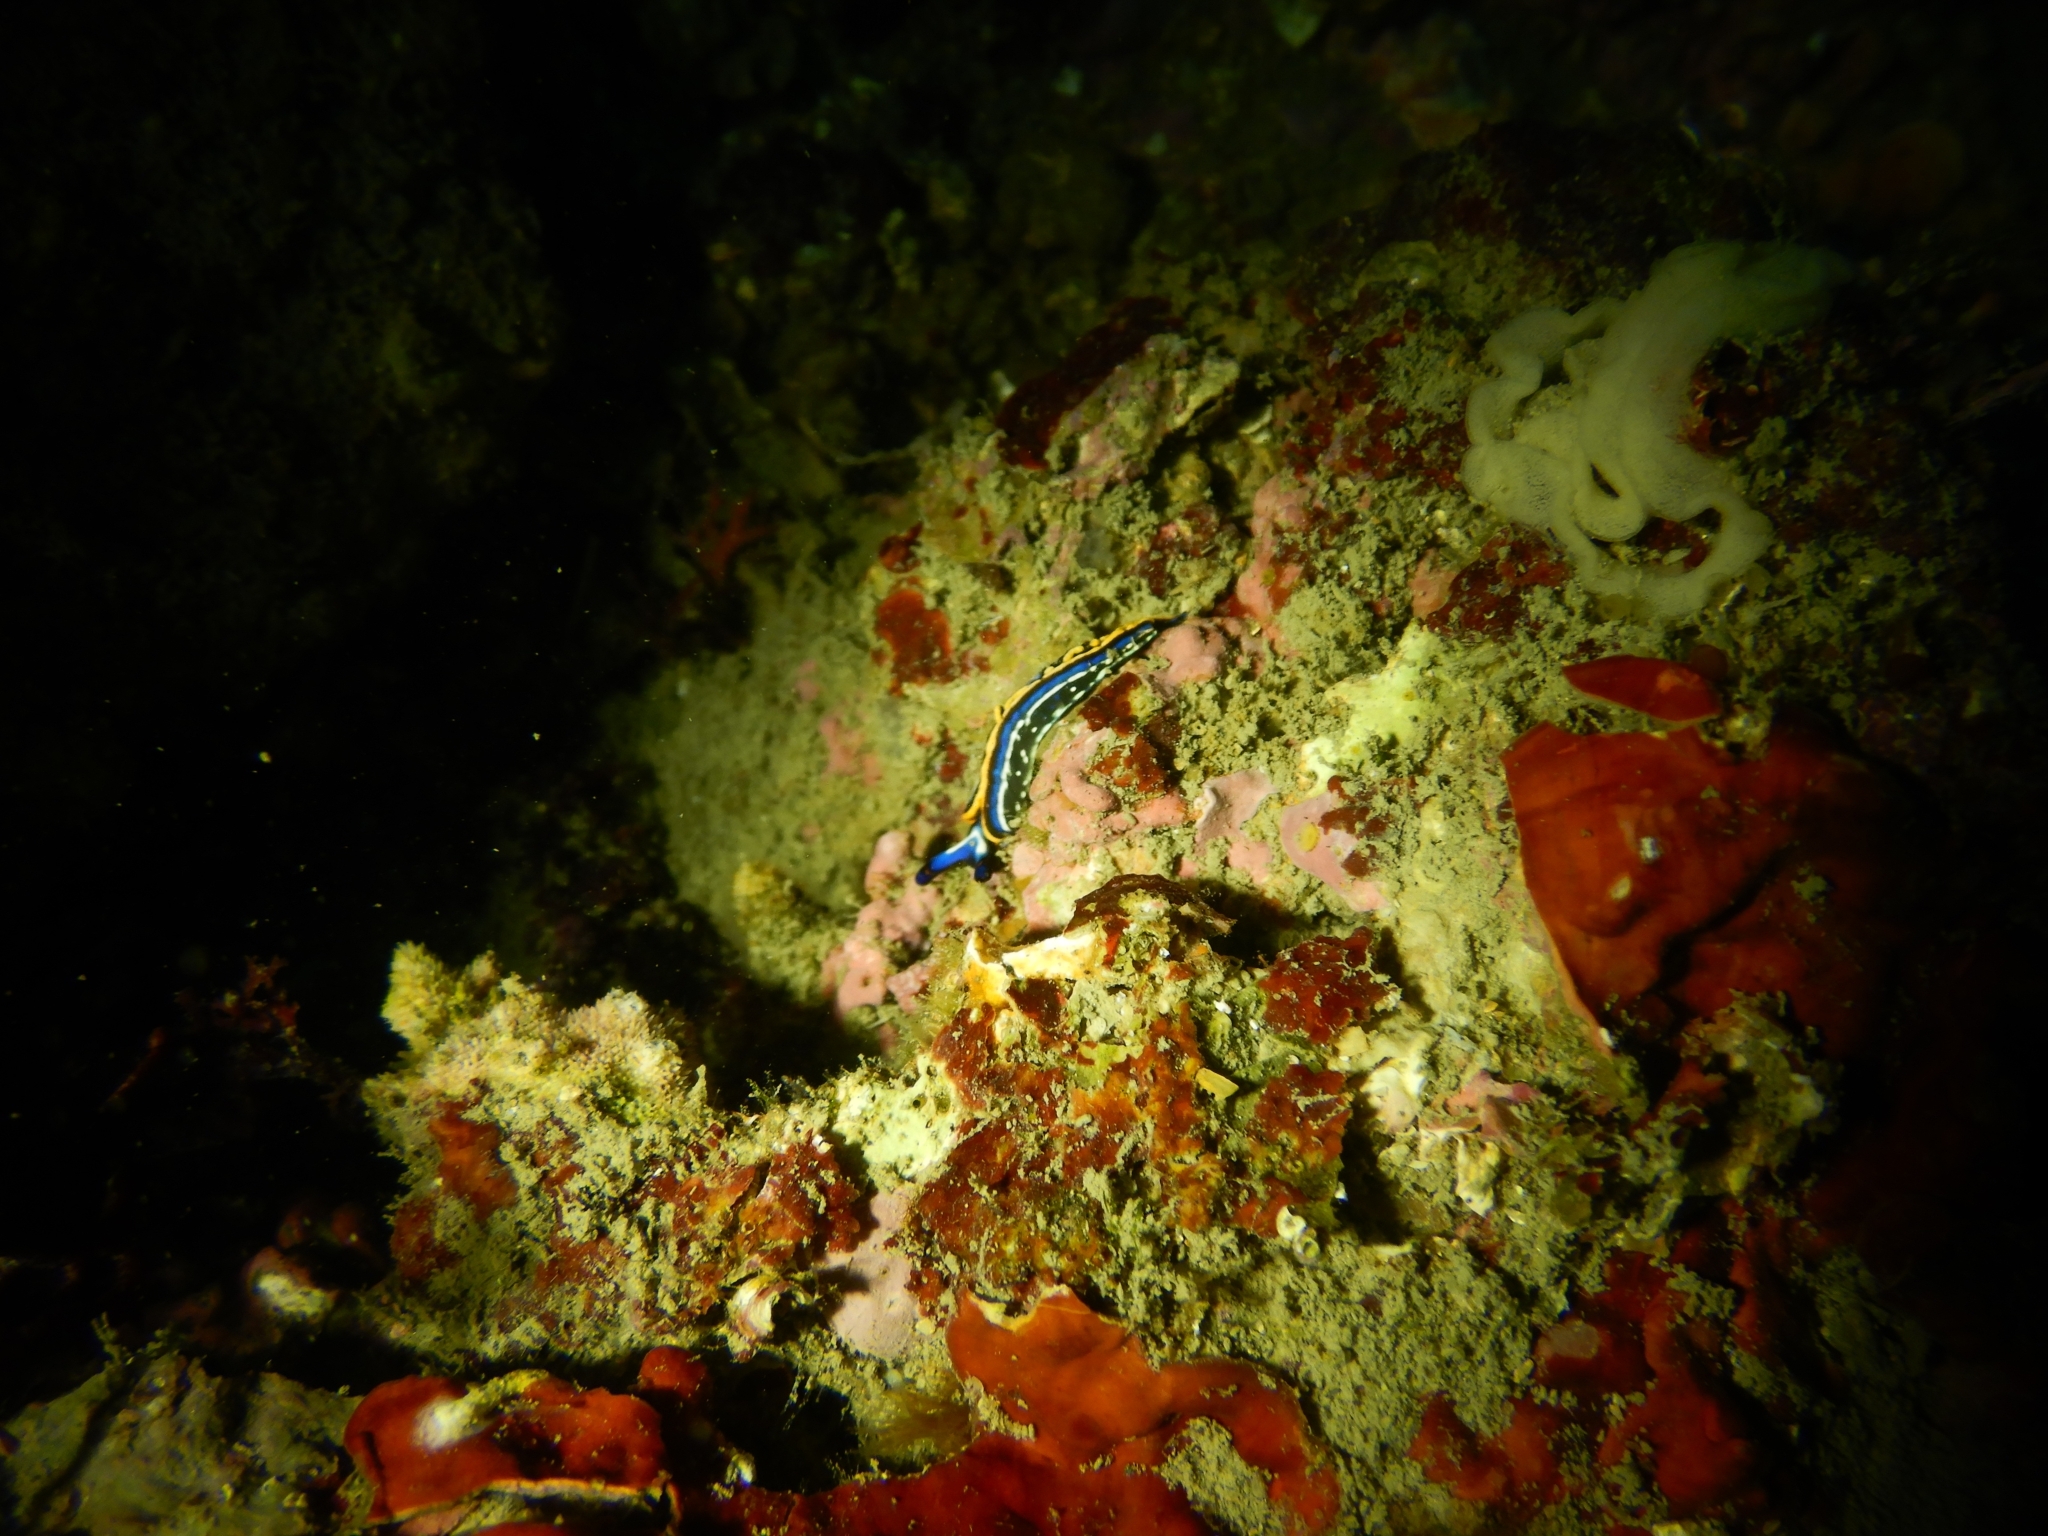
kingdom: Animalia
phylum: Mollusca
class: Gastropoda
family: Plakobranchidae
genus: Thuridilla
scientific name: Thuridilla hopei
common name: Splendid elysia
